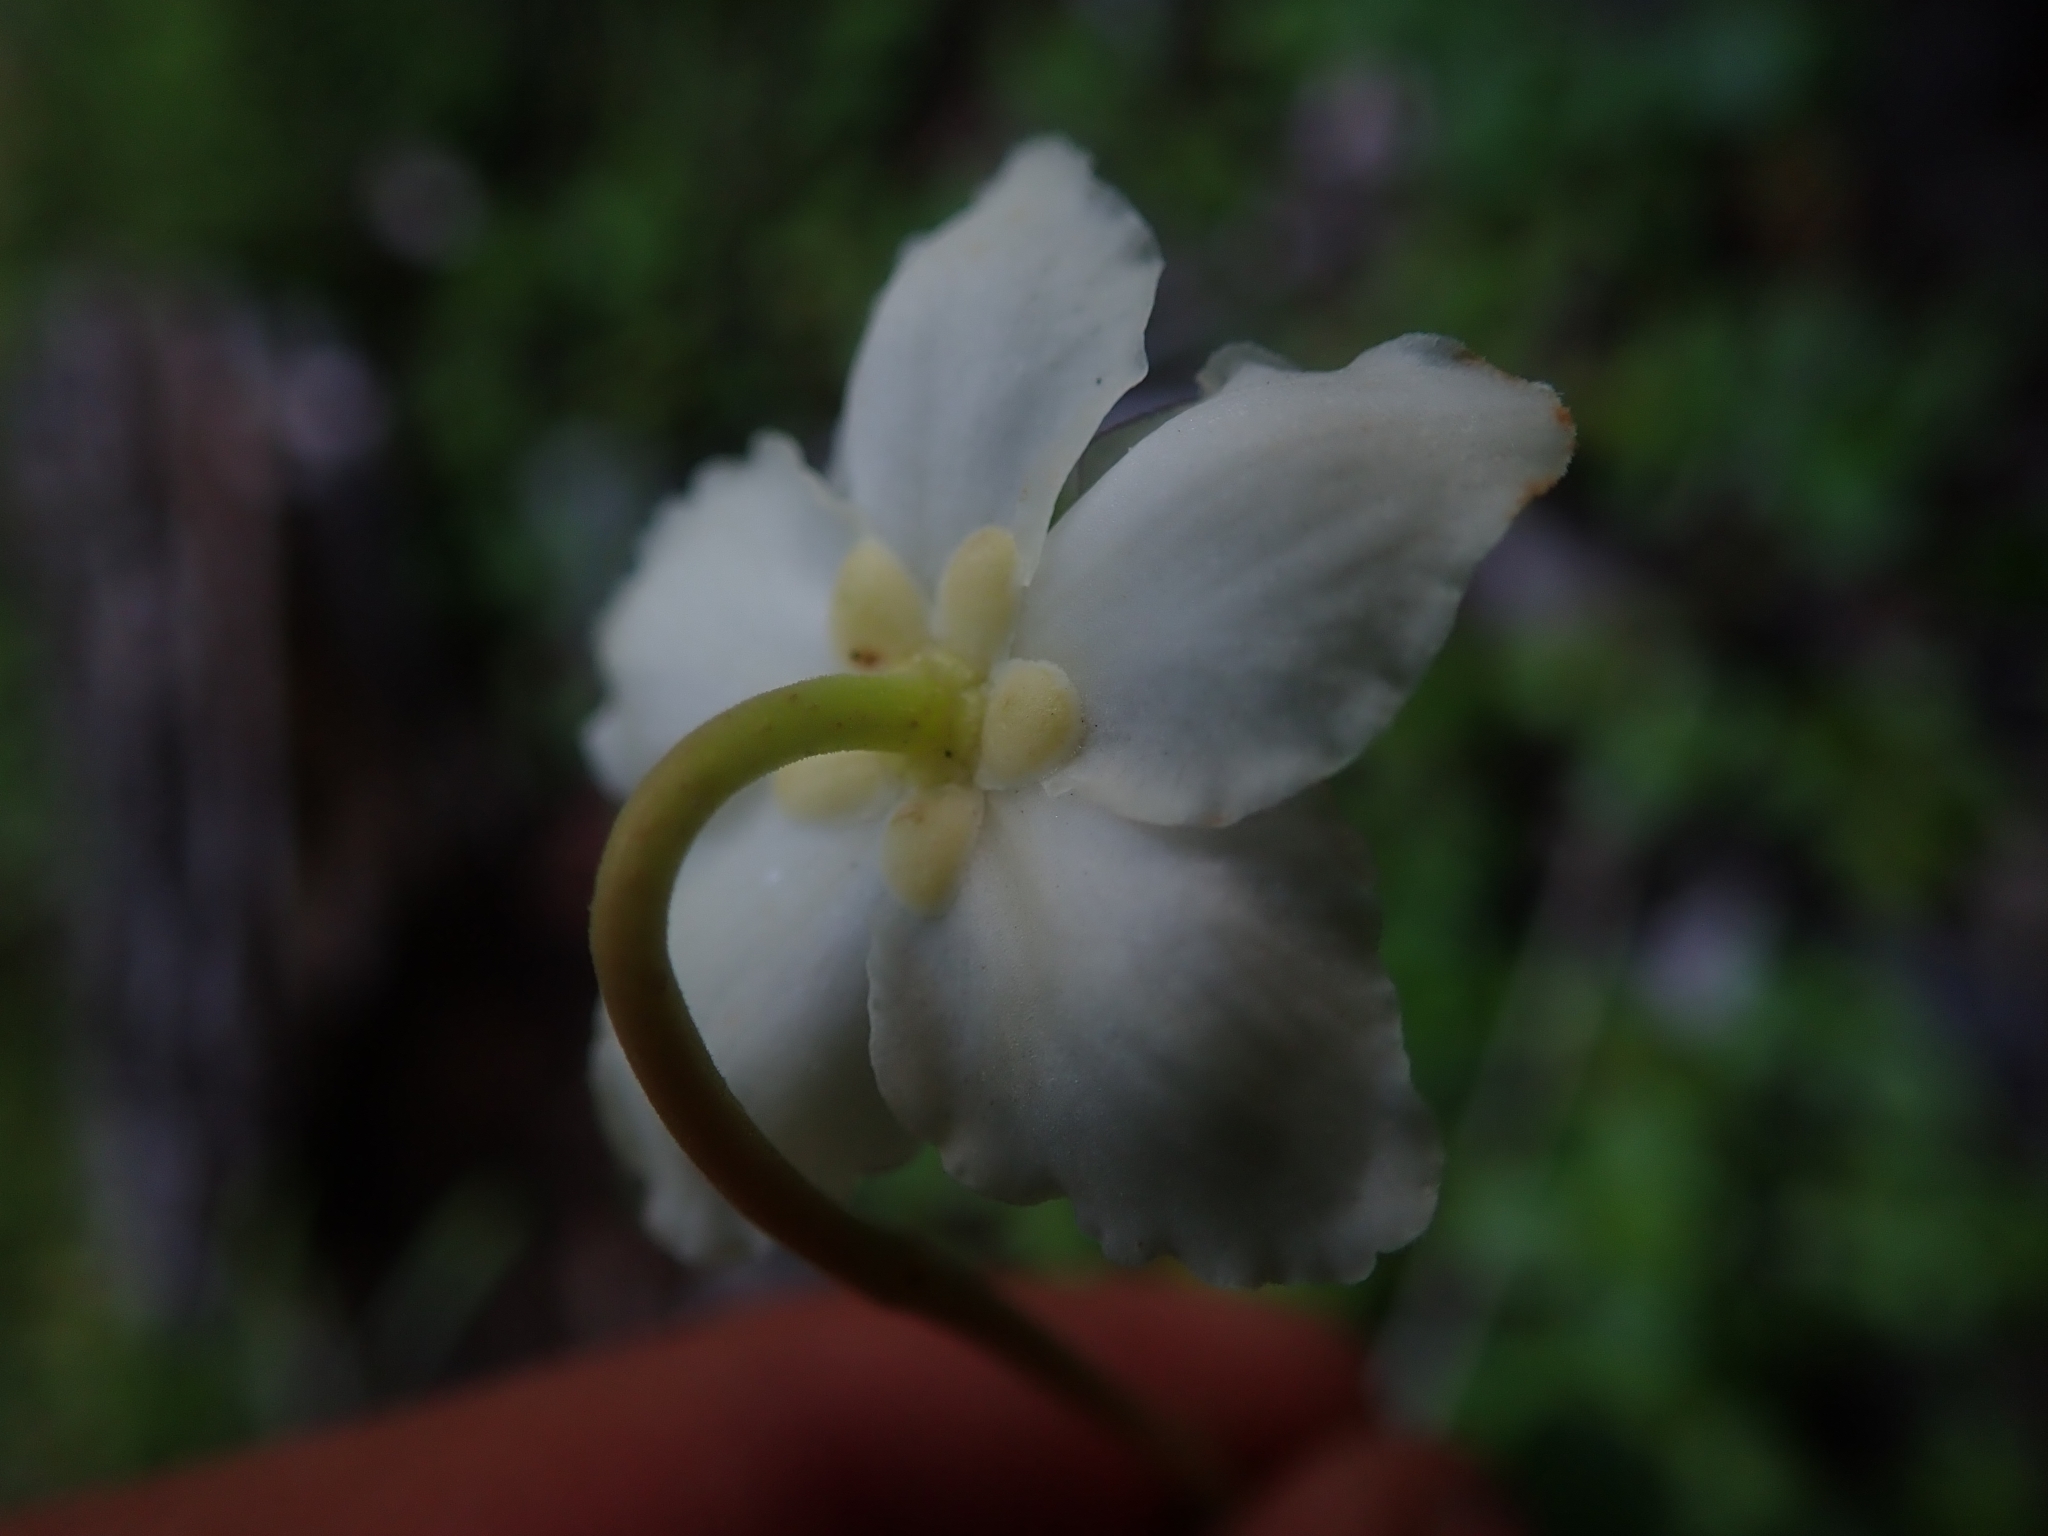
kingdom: Plantae
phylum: Tracheophyta
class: Magnoliopsida
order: Ericales
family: Ericaceae
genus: Moneses
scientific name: Moneses uniflora
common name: One-flowered wintergreen
